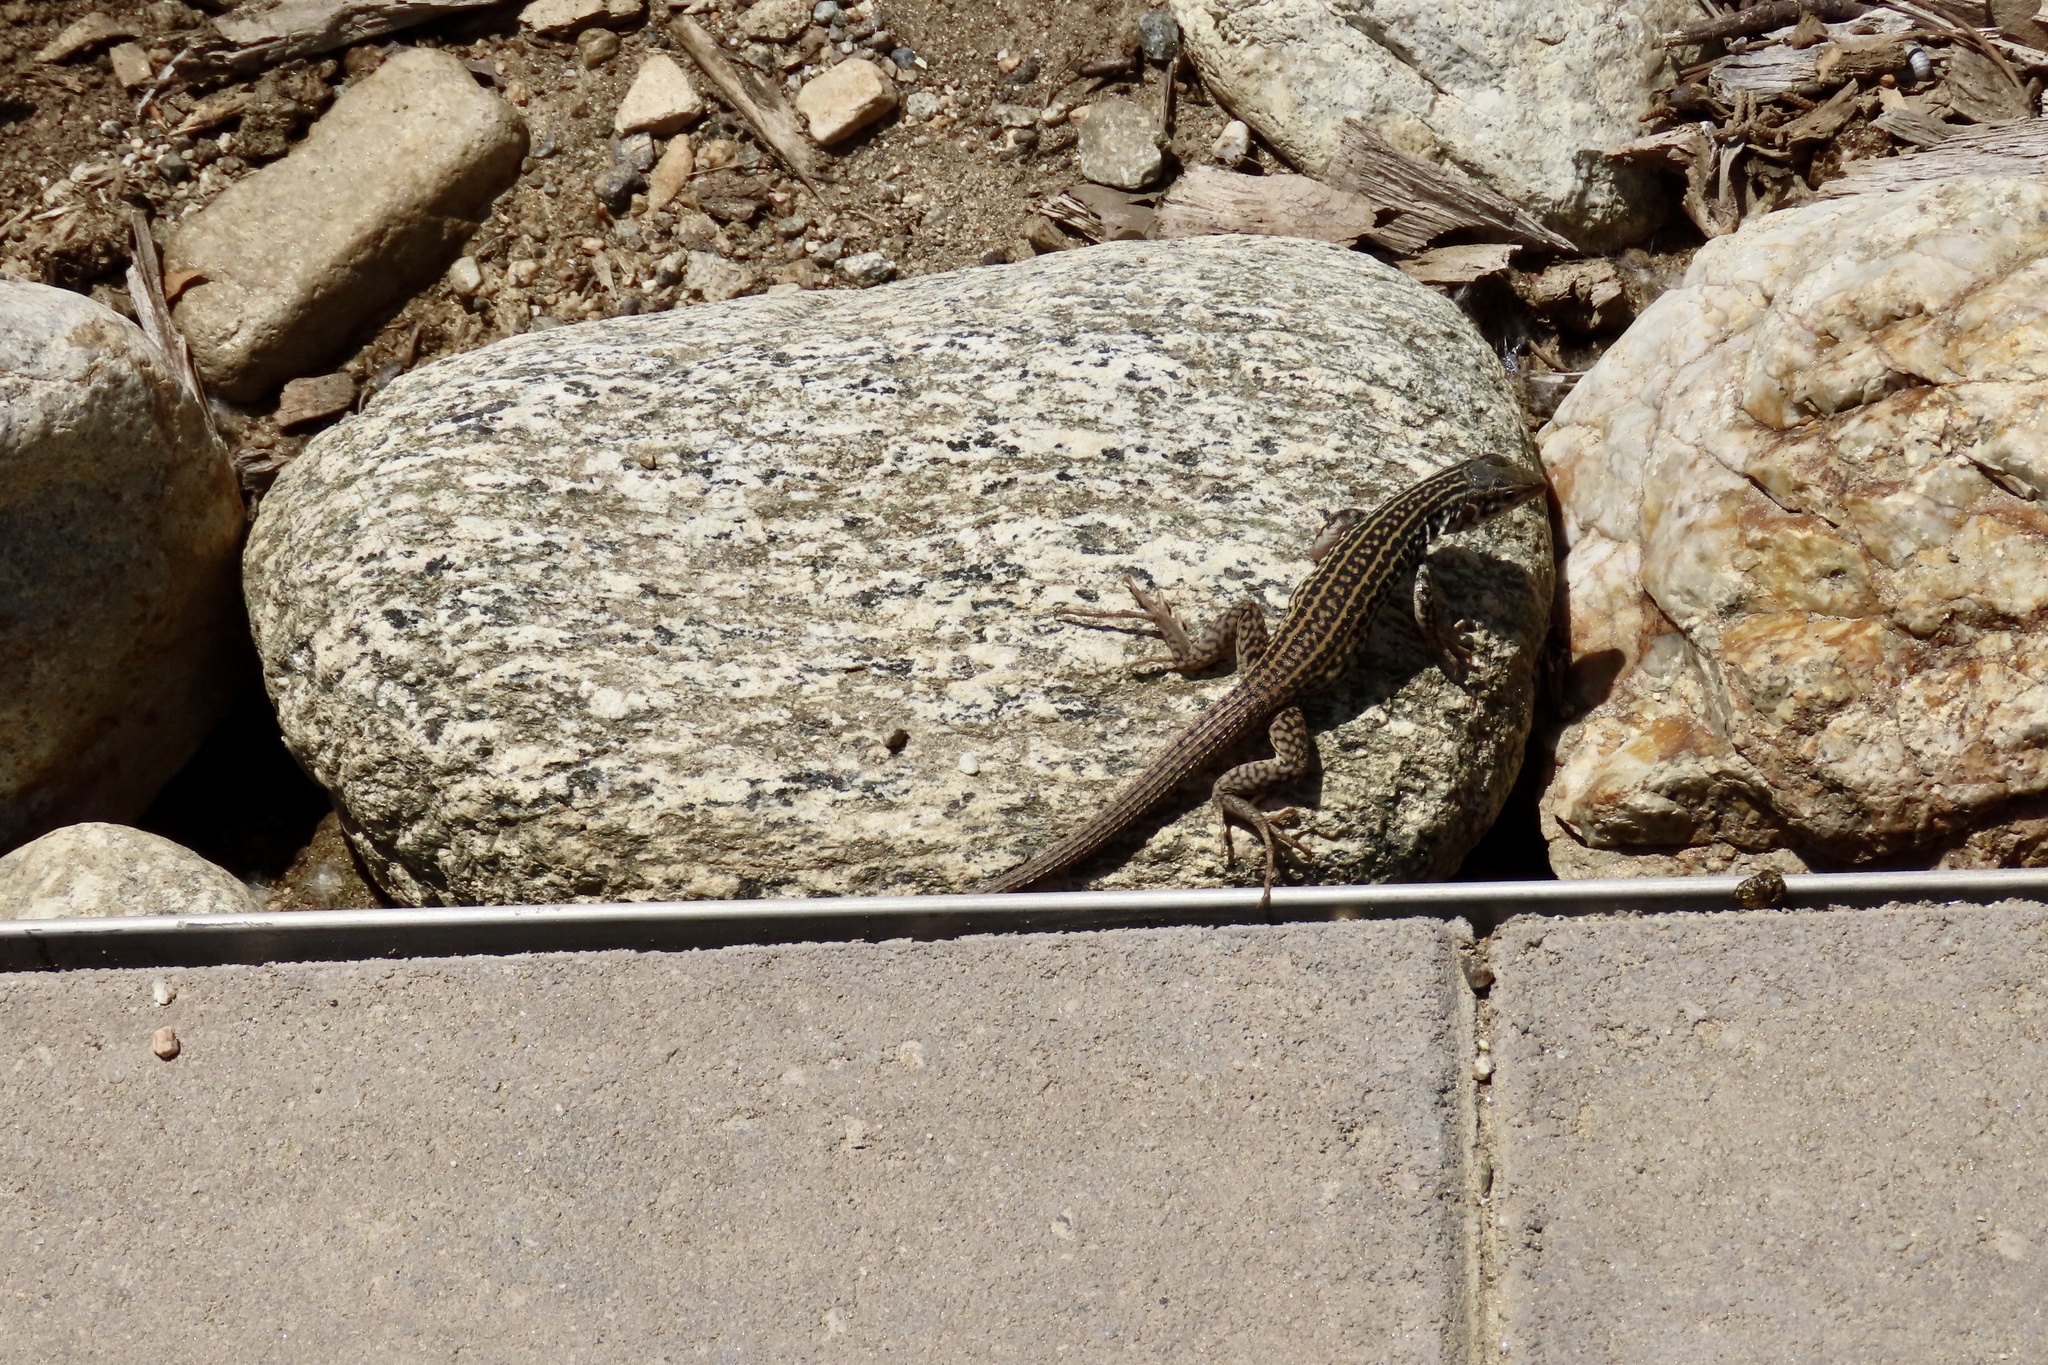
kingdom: Animalia
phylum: Chordata
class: Squamata
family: Teiidae
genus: Aspidoscelis
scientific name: Aspidoscelis tigris
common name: Tiger whiptail
